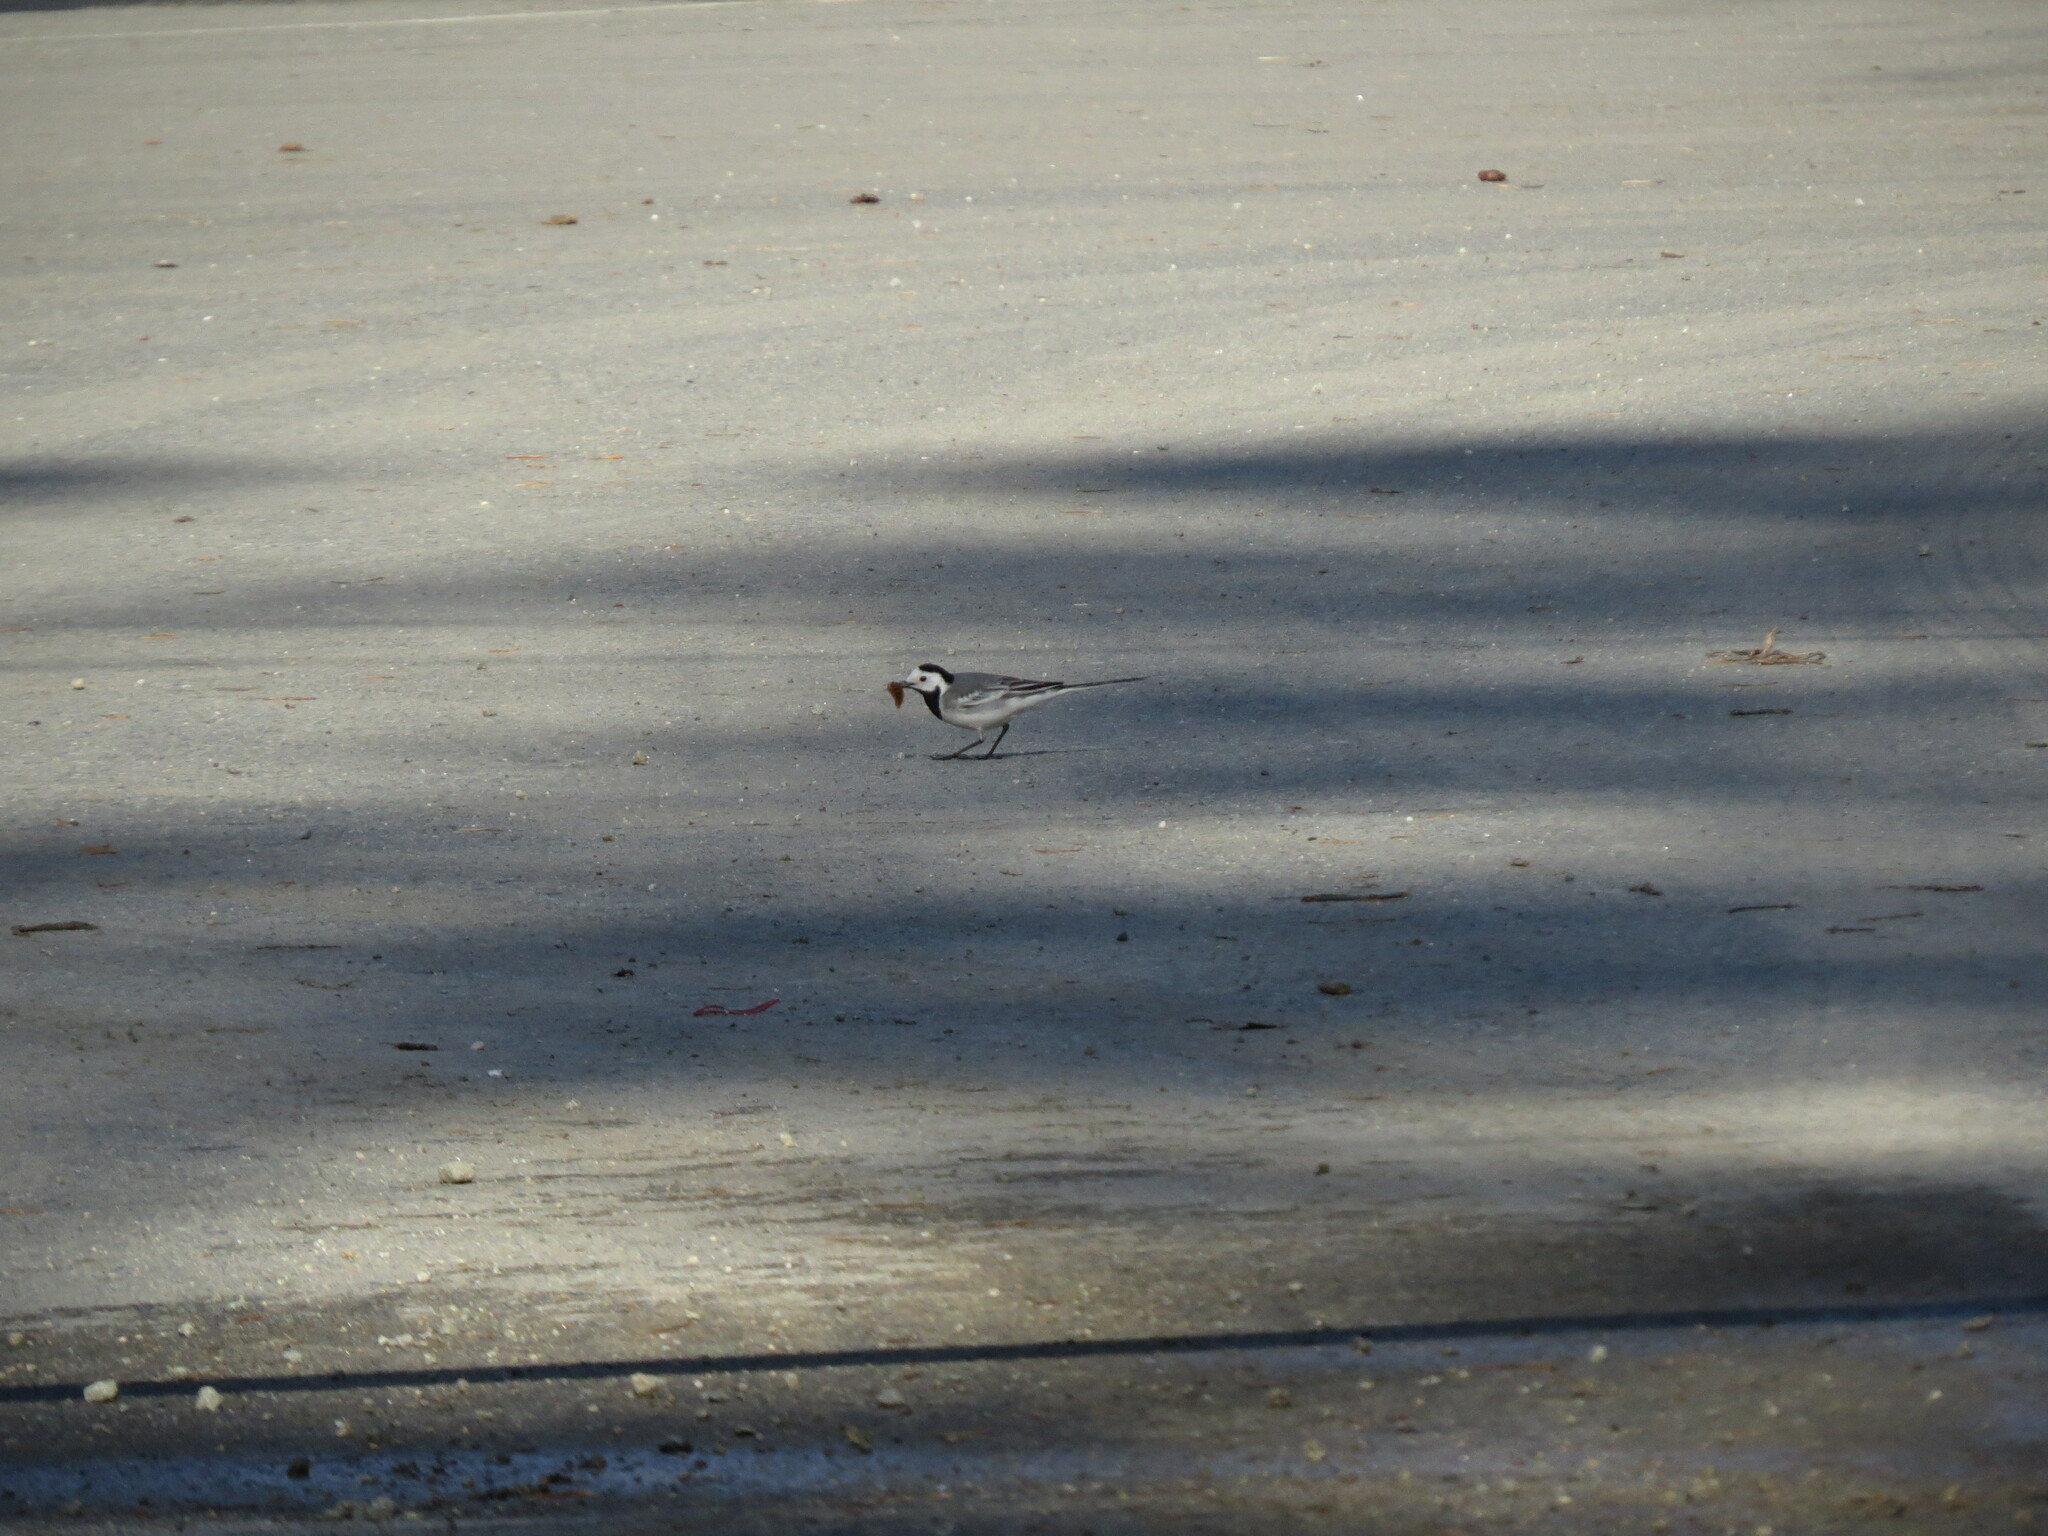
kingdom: Animalia
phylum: Chordata
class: Aves
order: Passeriformes
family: Motacillidae
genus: Motacilla
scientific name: Motacilla alba
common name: White wagtail
